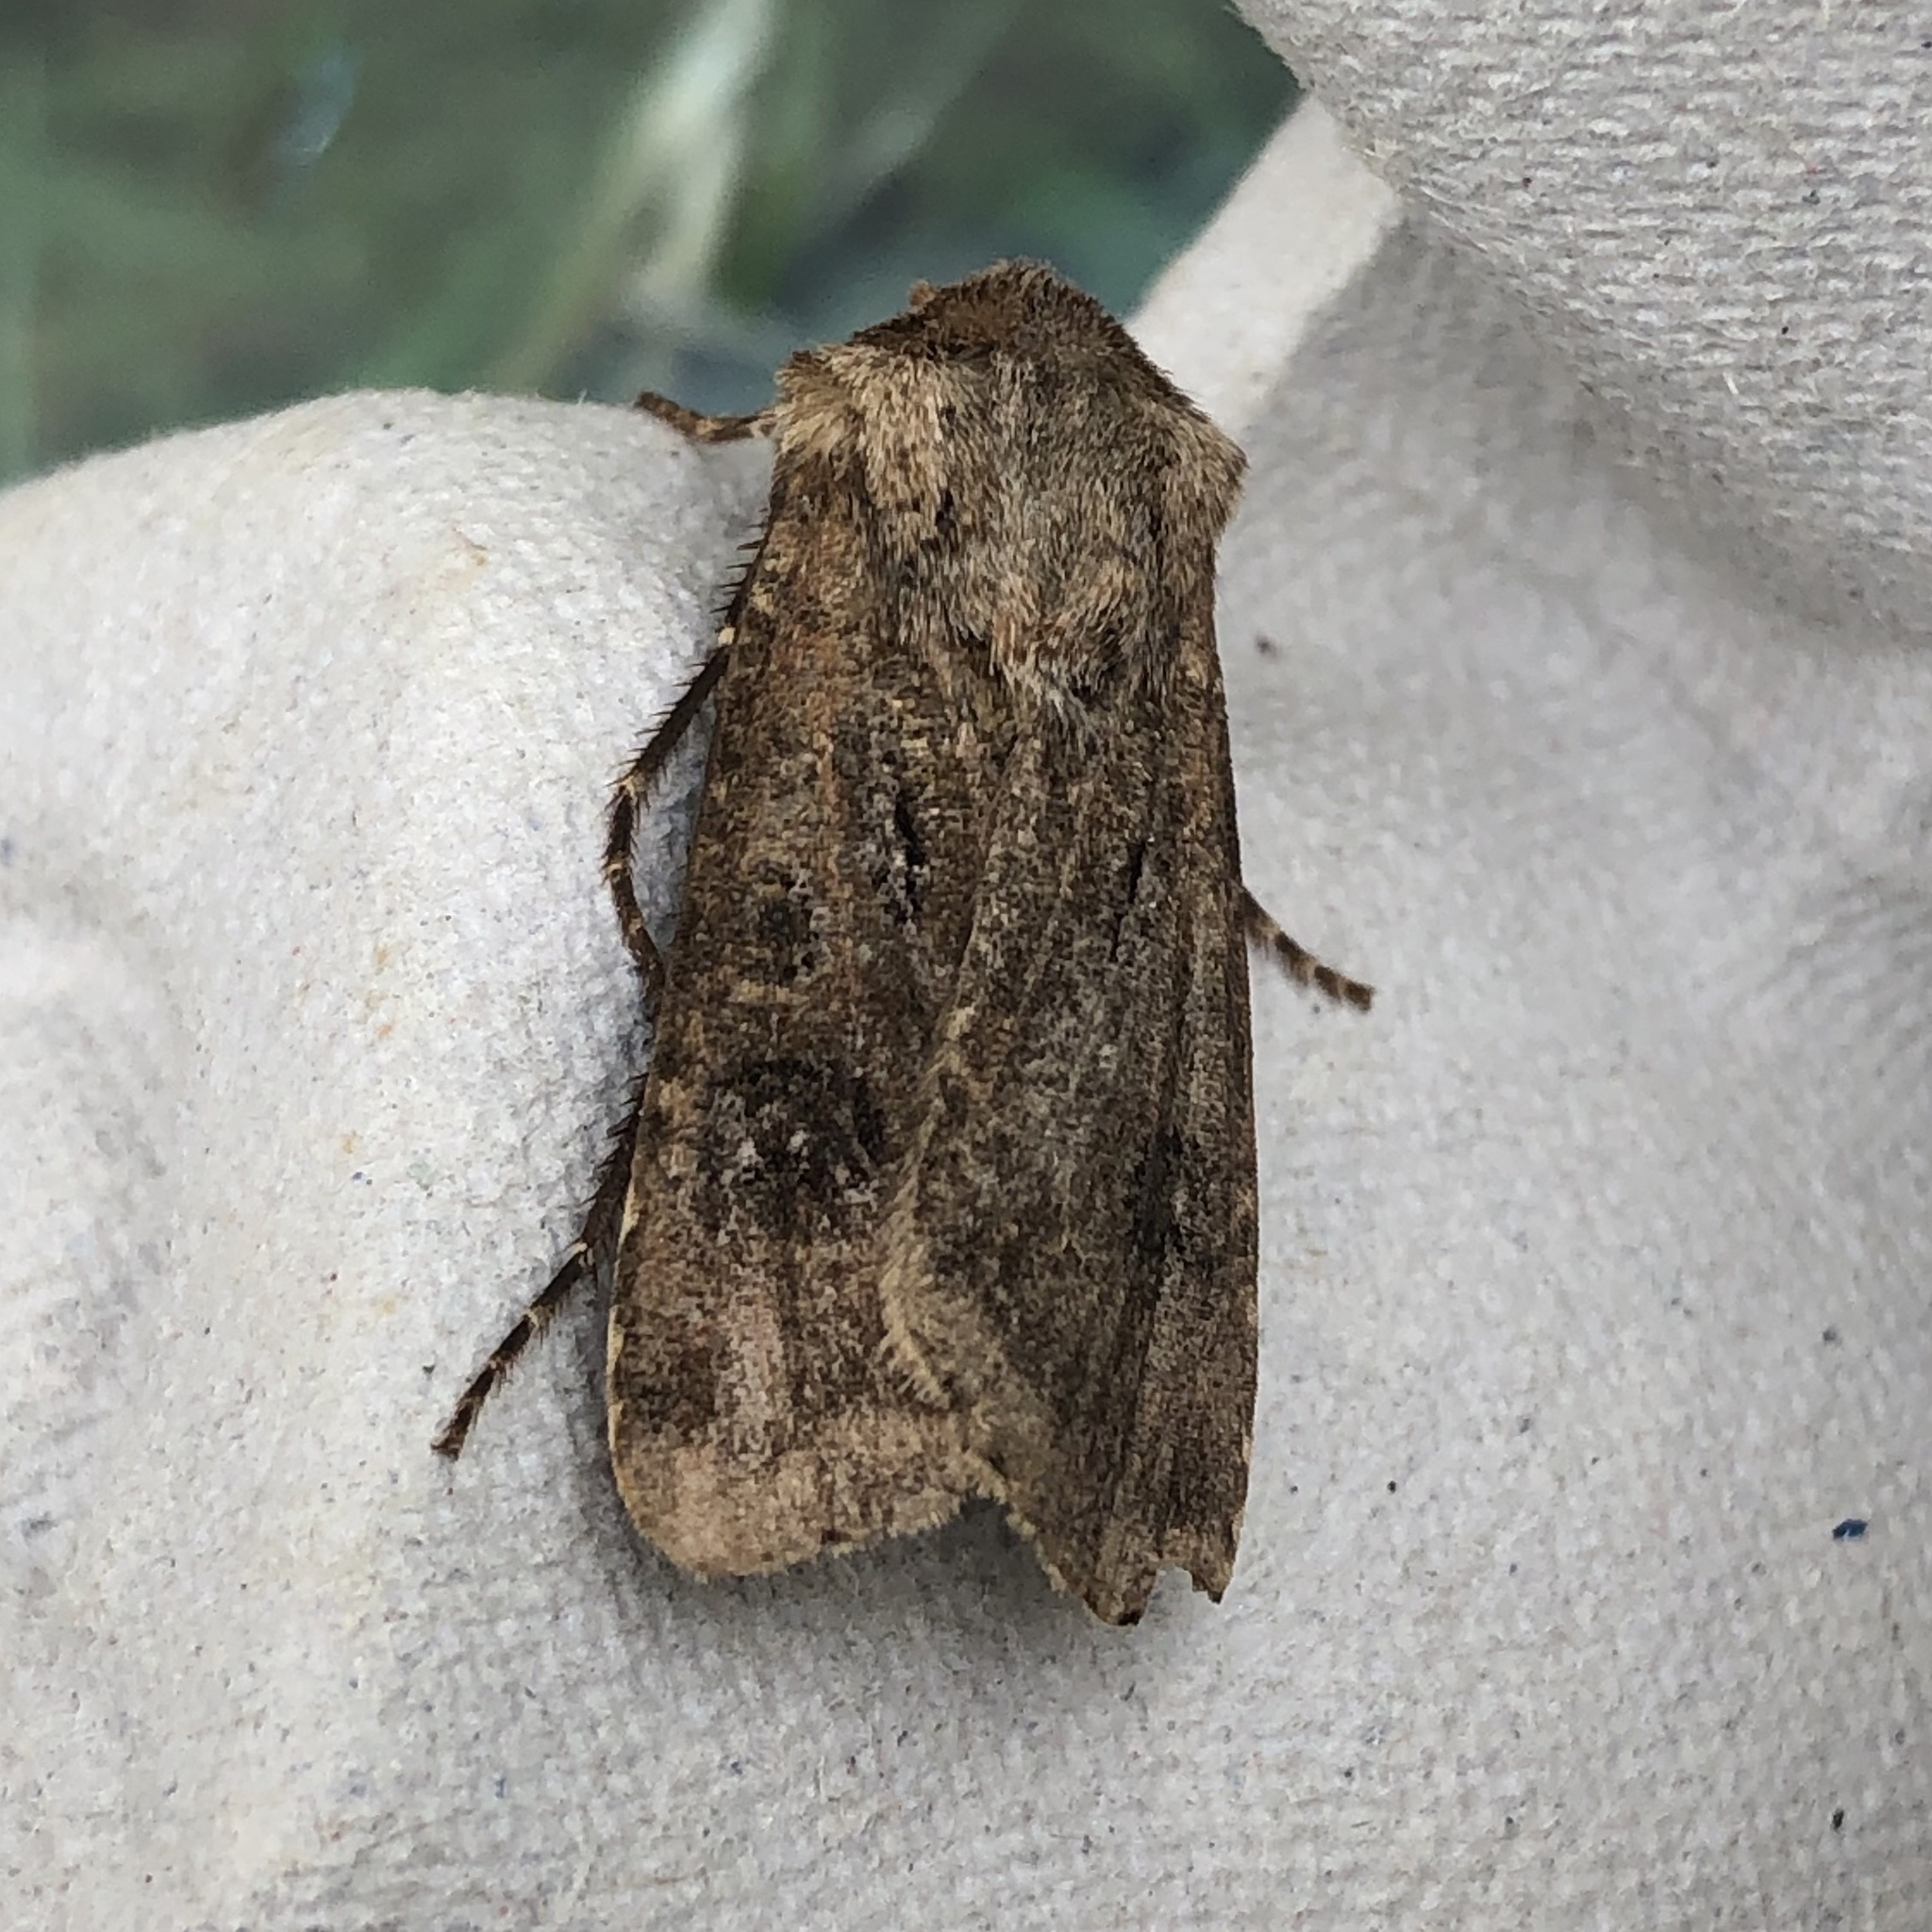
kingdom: Animalia
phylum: Arthropoda
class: Insecta
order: Lepidoptera
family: Noctuidae
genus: Agrotis
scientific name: Agrotis clavis
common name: Heart and club
